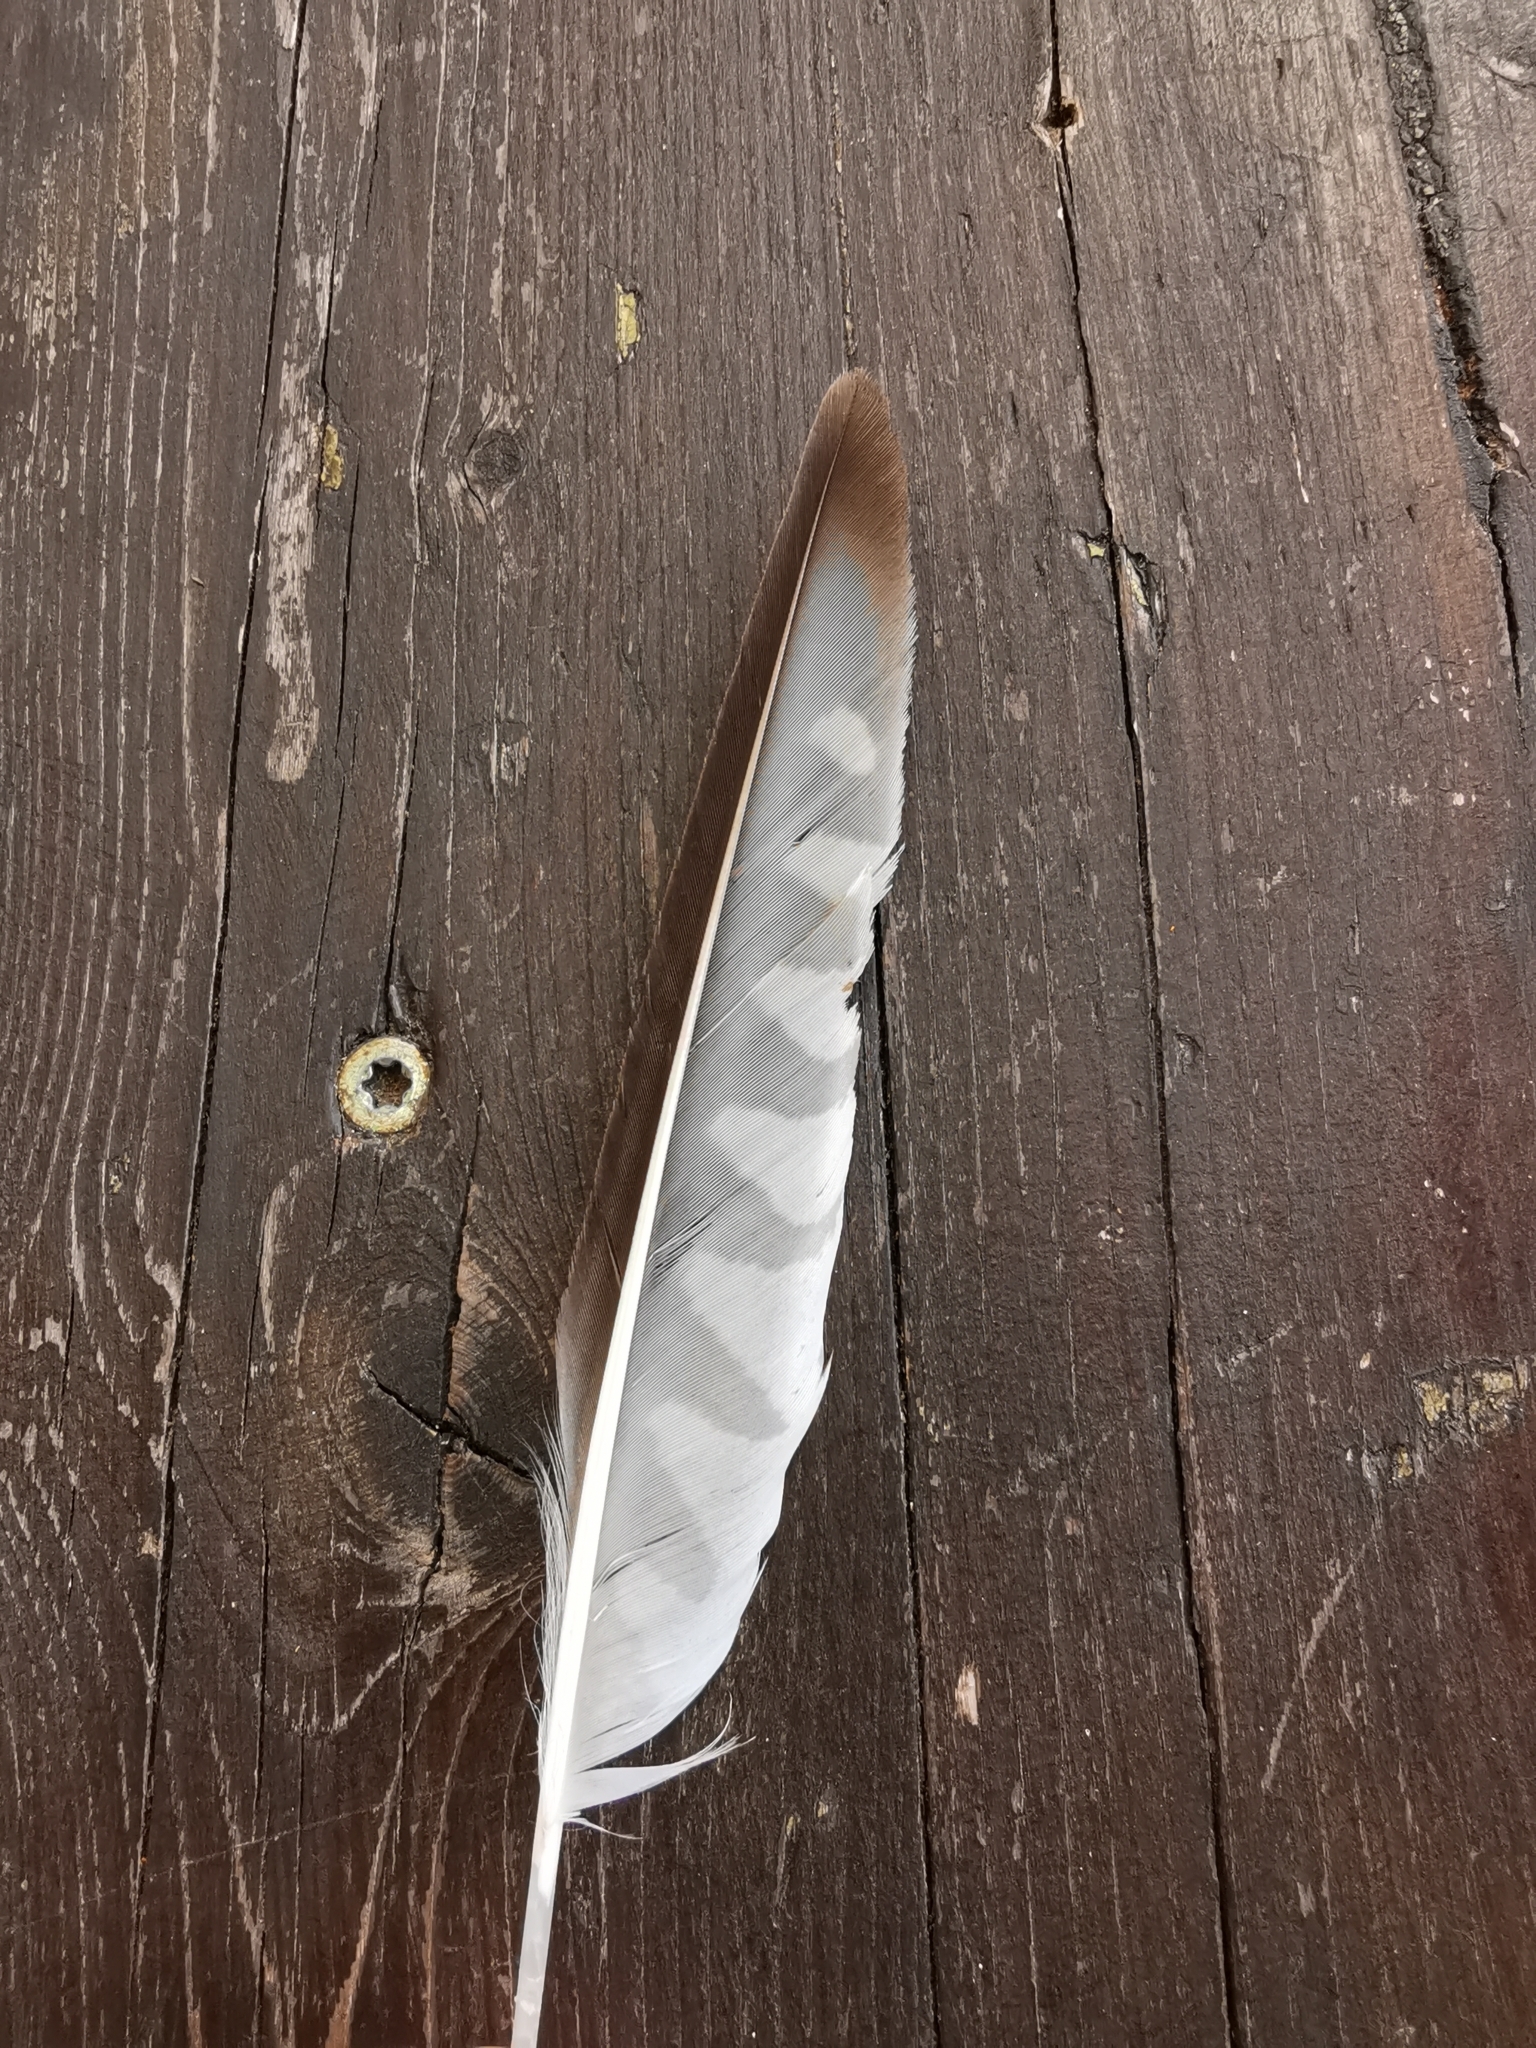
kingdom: Animalia
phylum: Chordata
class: Aves
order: Falconiformes
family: Falconidae
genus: Falco
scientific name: Falco tinnunculus
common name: Common kestrel
